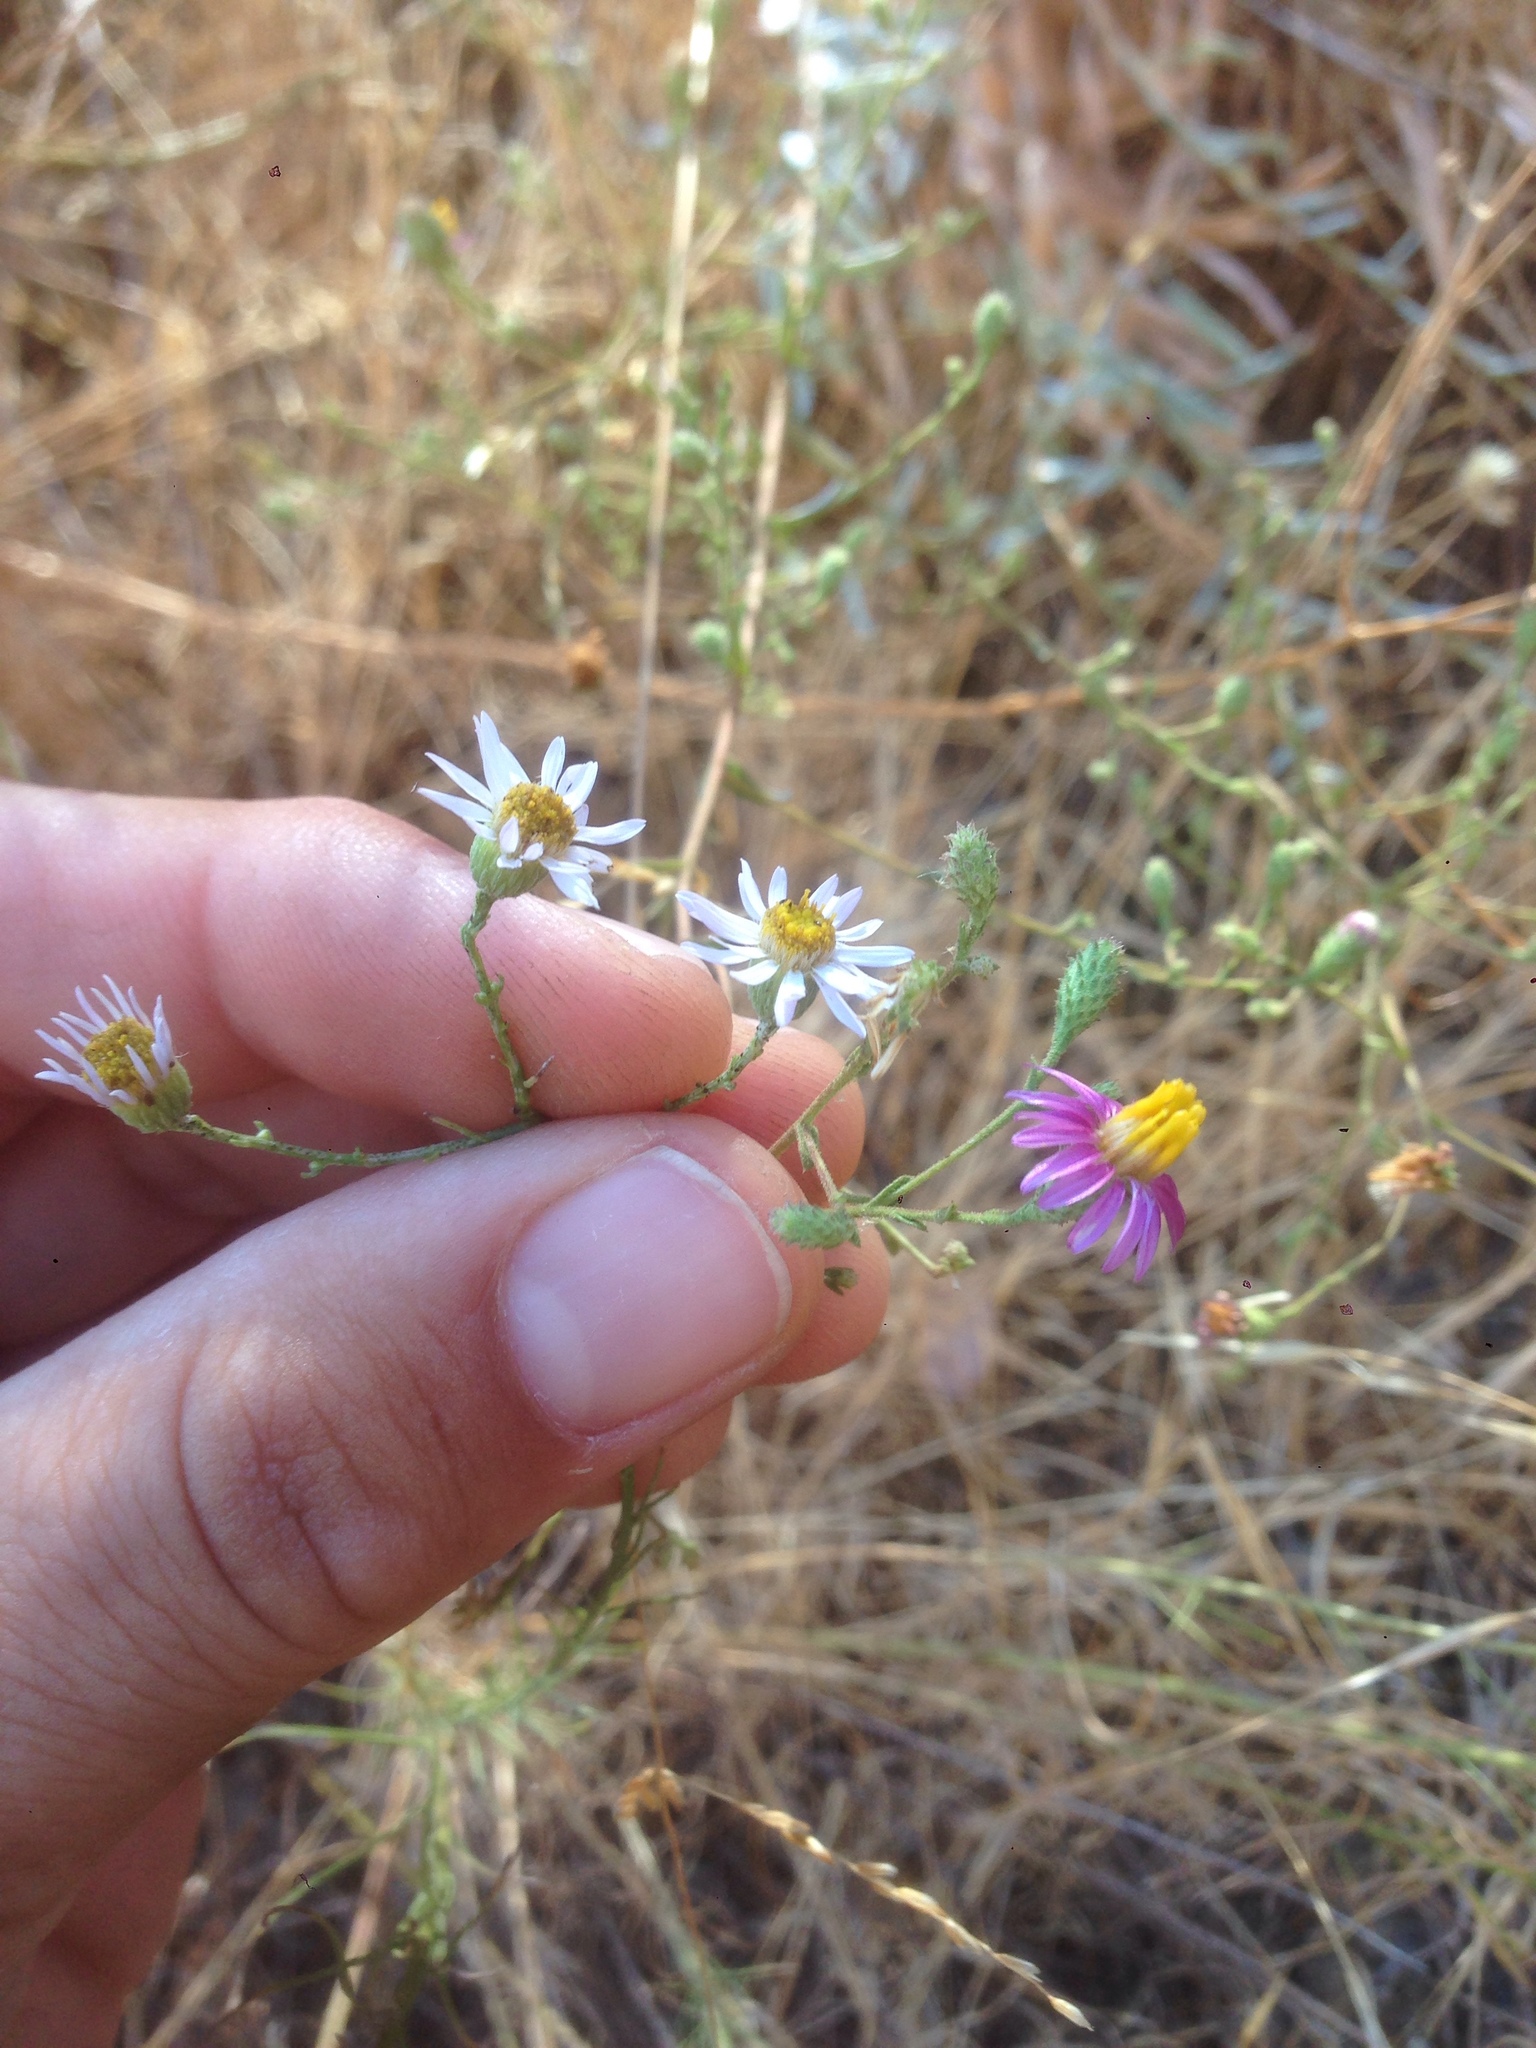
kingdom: Plantae
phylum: Tracheophyta
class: Magnoliopsida
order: Asterales
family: Asteraceae
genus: Corethrogyne
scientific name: Corethrogyne filaginifolia
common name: Sand-aster
